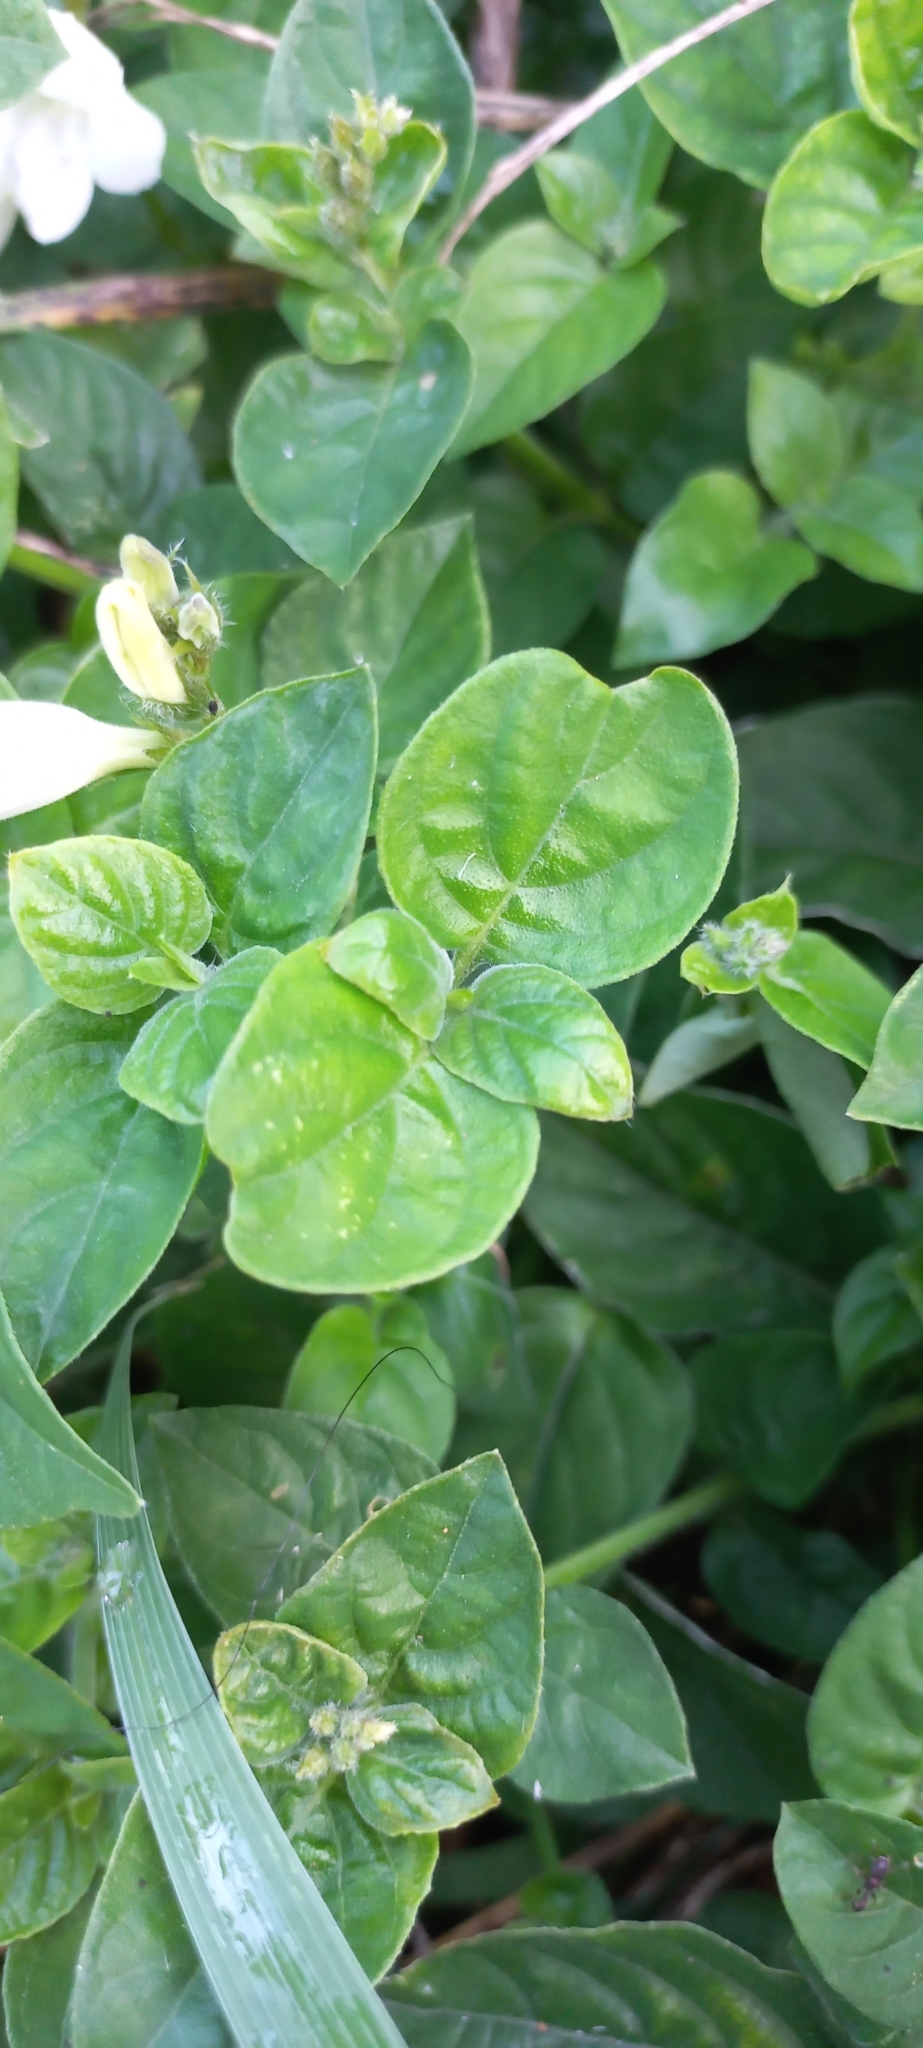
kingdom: Plantae
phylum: Tracheophyta
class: Magnoliopsida
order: Lamiales
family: Acanthaceae
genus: Asystasia
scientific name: Asystasia intrusa
